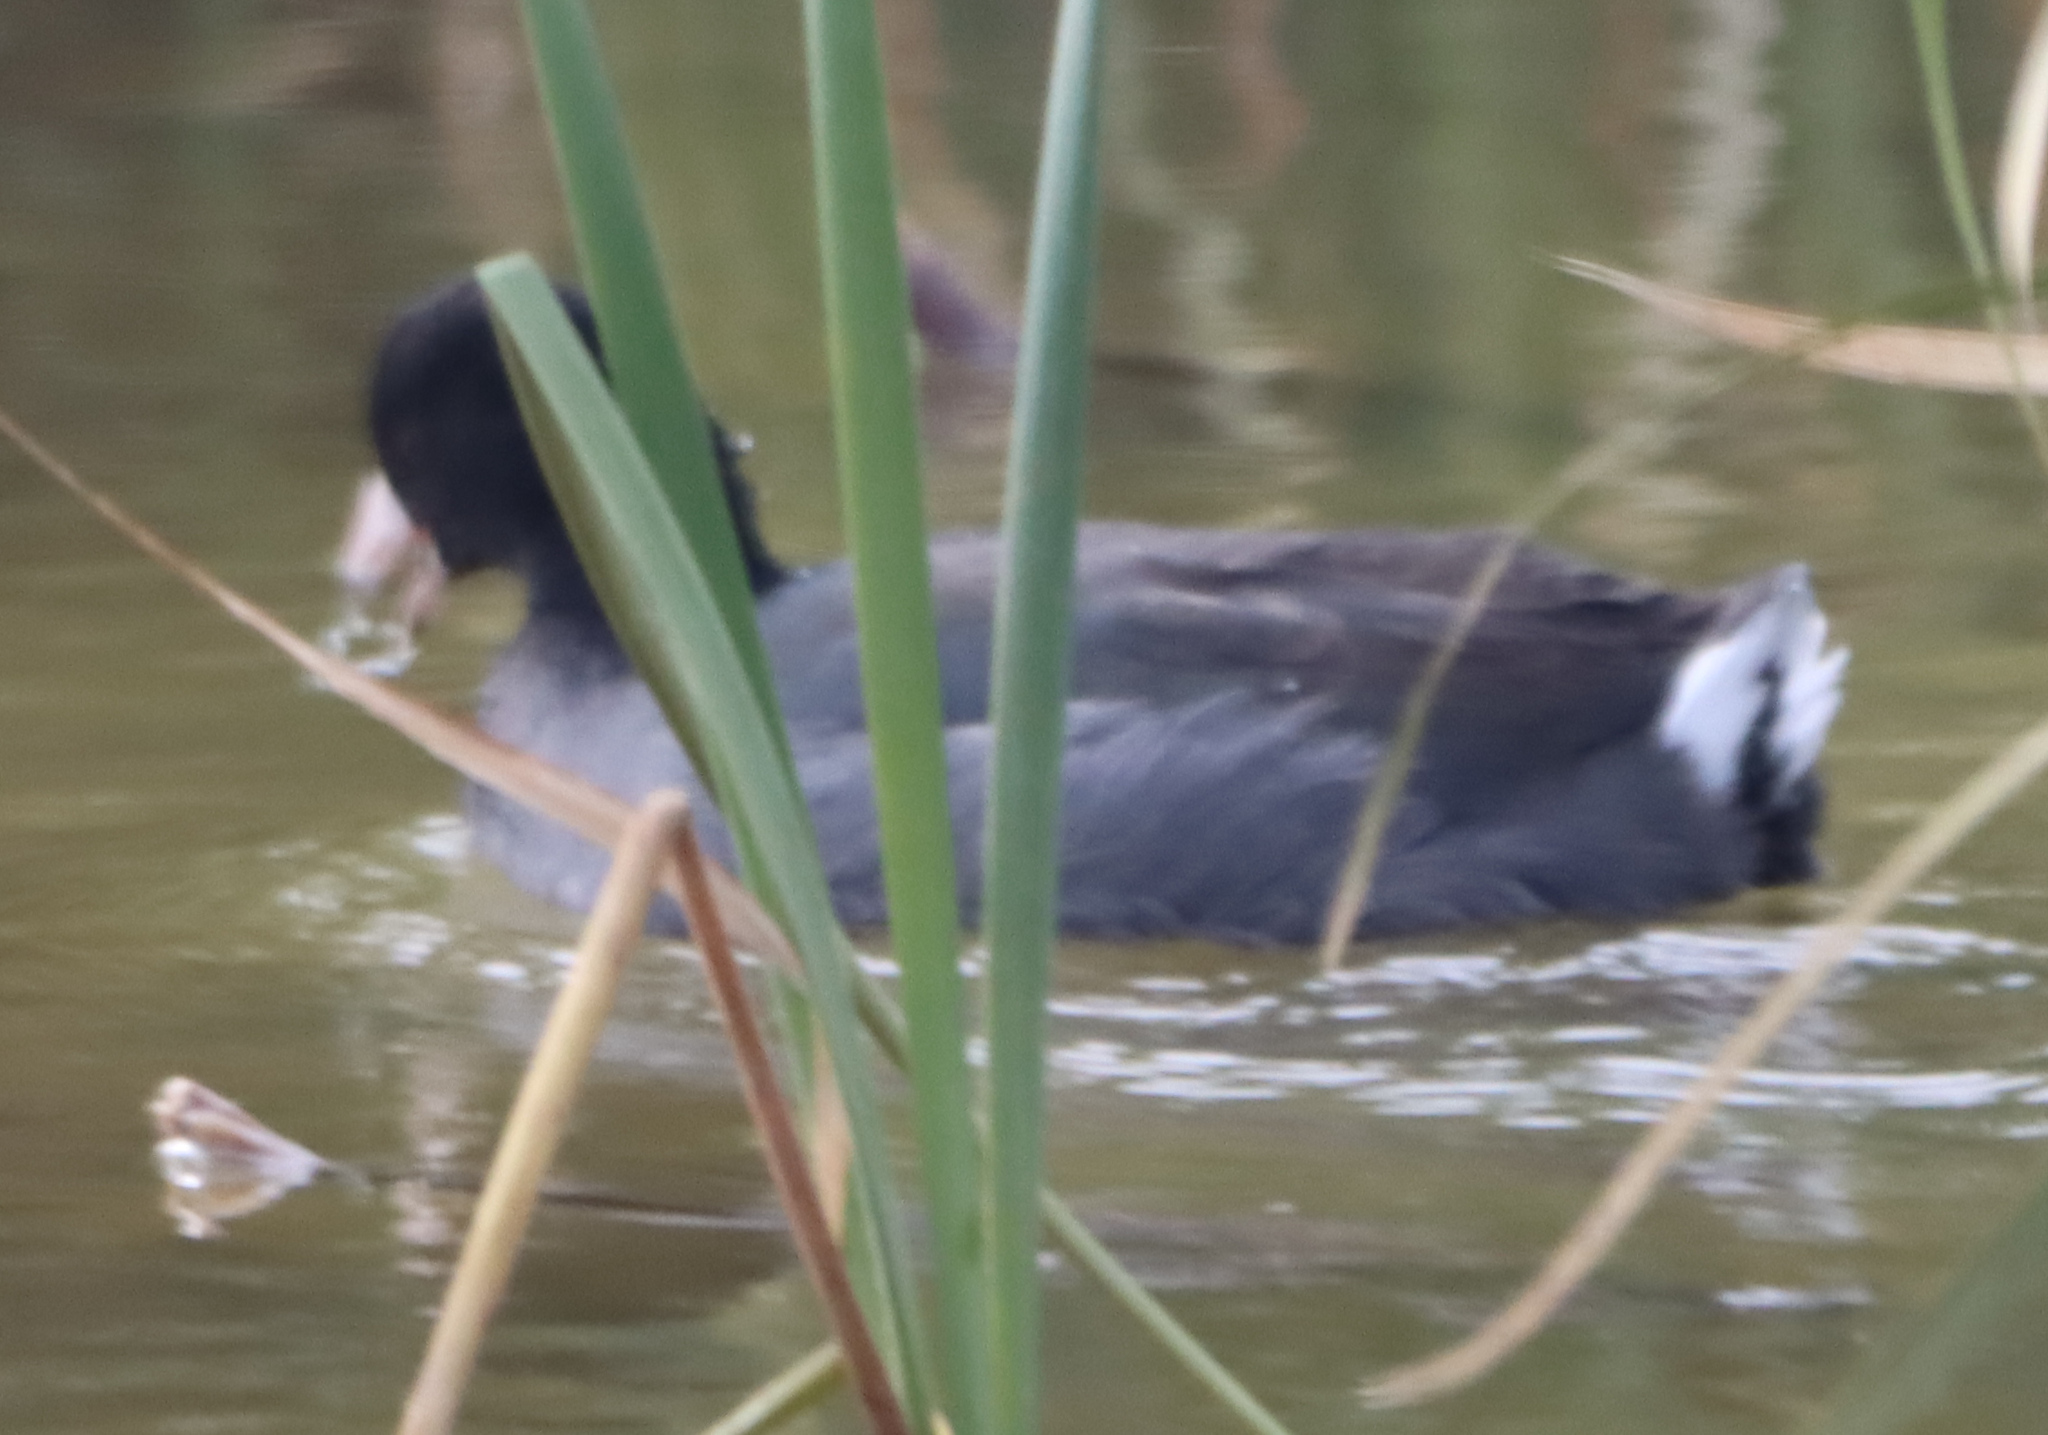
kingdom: Animalia
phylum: Chordata
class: Aves
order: Gruiformes
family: Rallidae
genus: Fulica
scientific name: Fulica americana
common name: American coot
